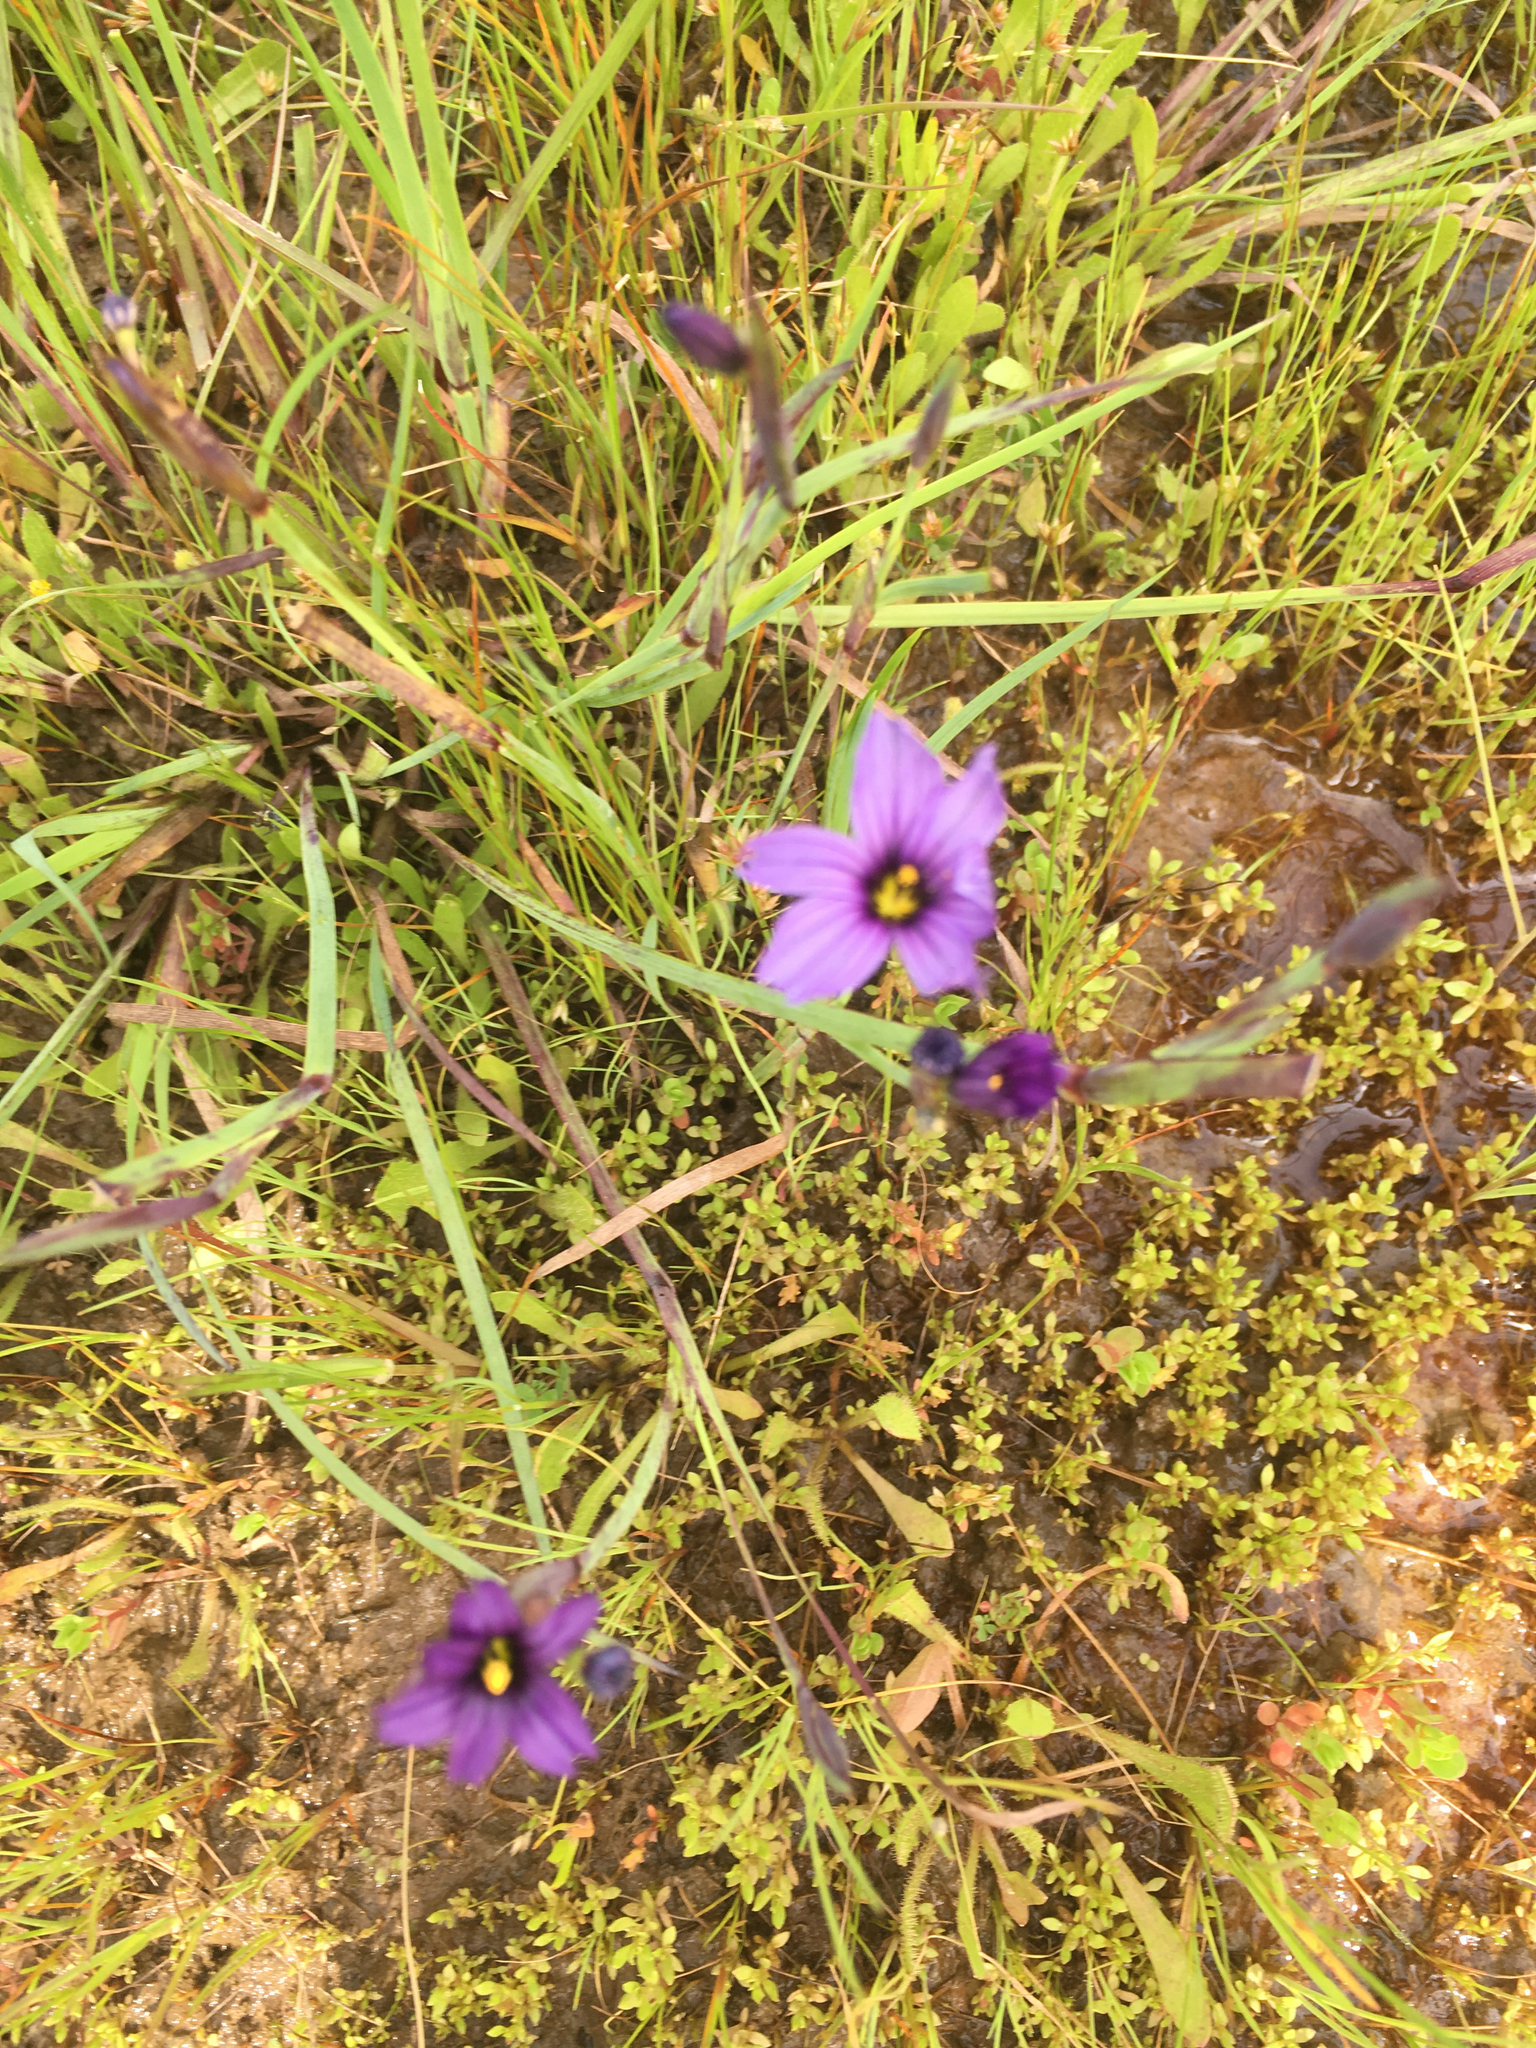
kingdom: Plantae
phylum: Tracheophyta
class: Liliopsida
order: Asparagales
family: Iridaceae
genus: Sisyrinchium
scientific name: Sisyrinchium bellum
